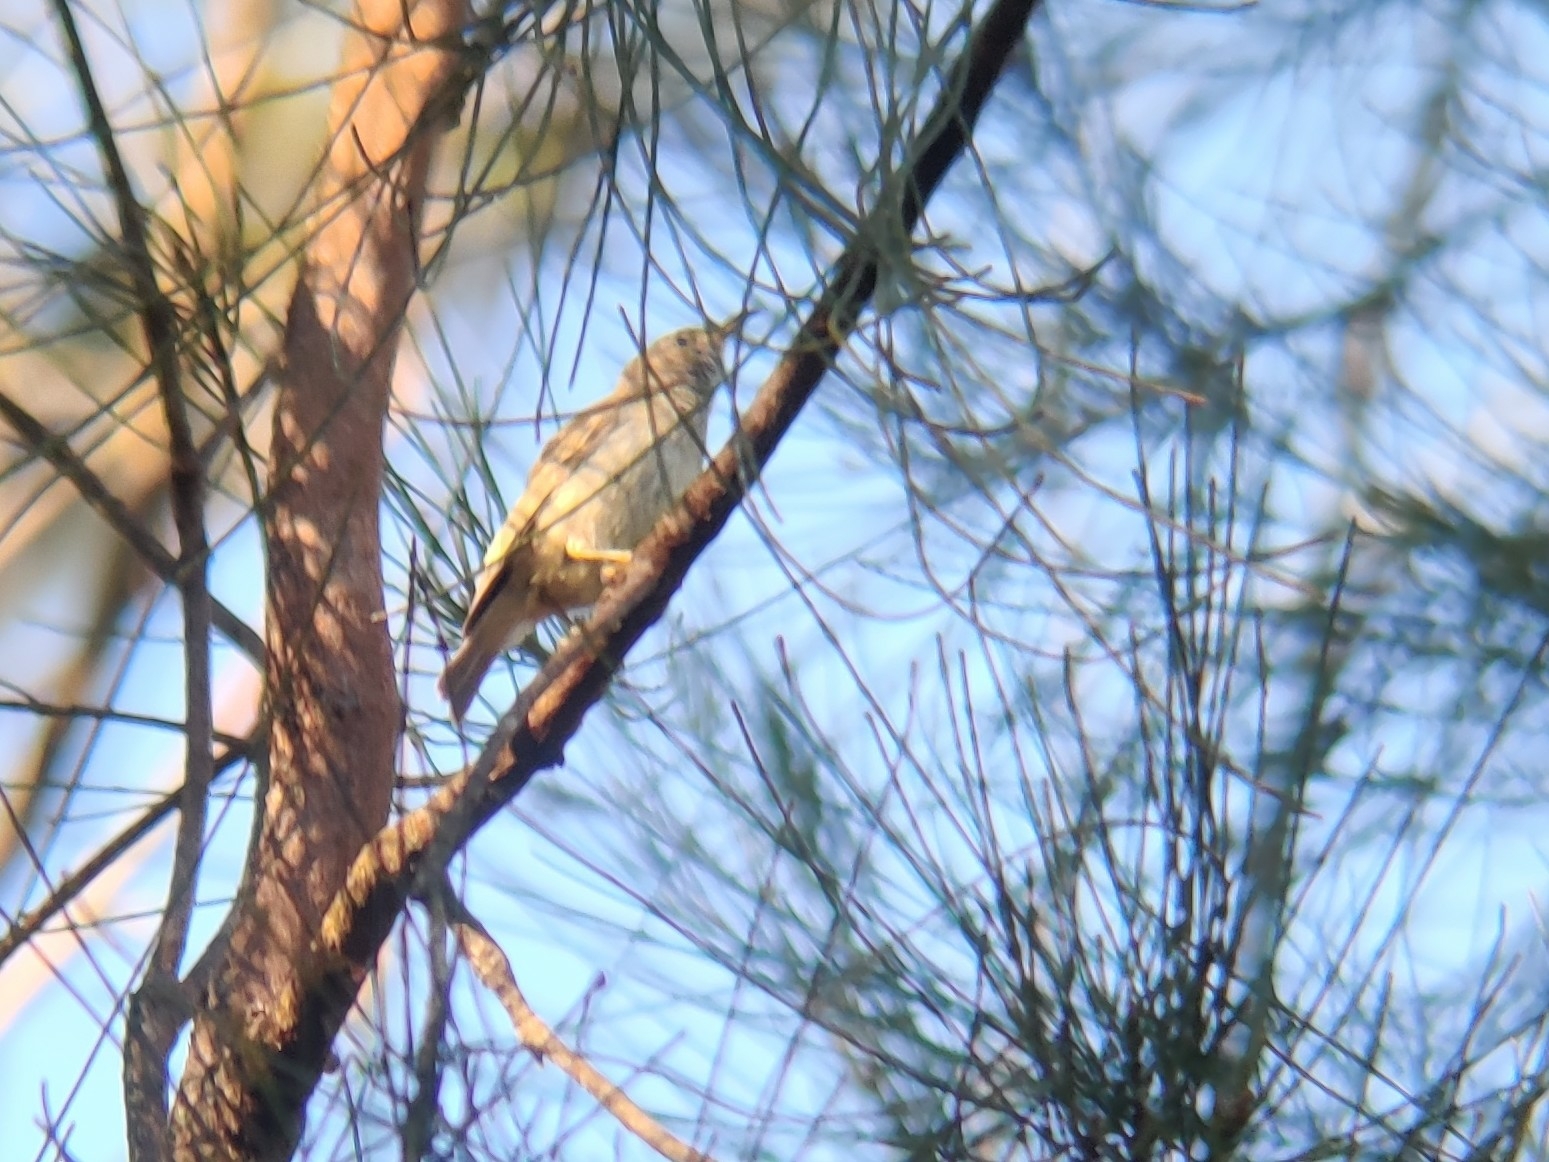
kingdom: Animalia
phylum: Chordata
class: Aves
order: Passeriformes
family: Meliphagidae
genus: Myzomela
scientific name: Myzomela sanguinolenta
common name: Scarlet myzomela
